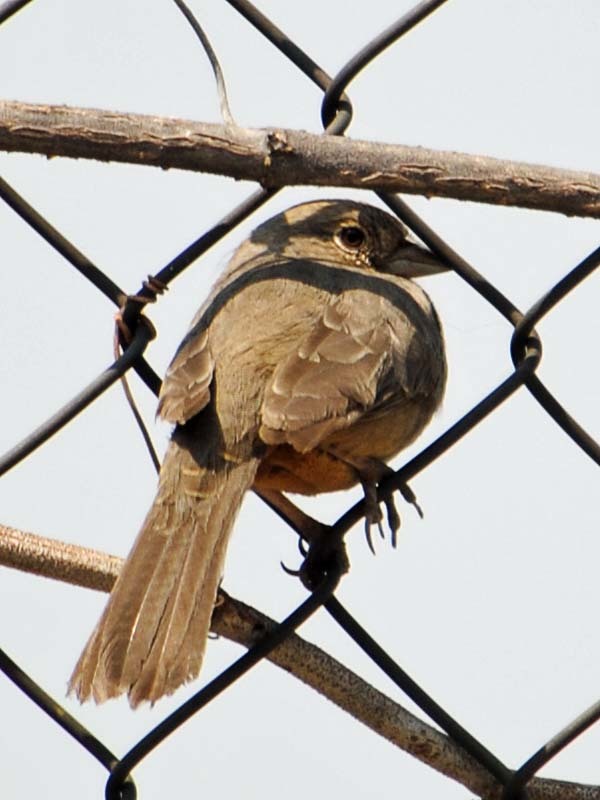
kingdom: Animalia
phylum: Chordata
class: Aves
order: Passeriformes
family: Passerellidae
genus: Melozone
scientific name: Melozone fusca
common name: Canyon towhee
